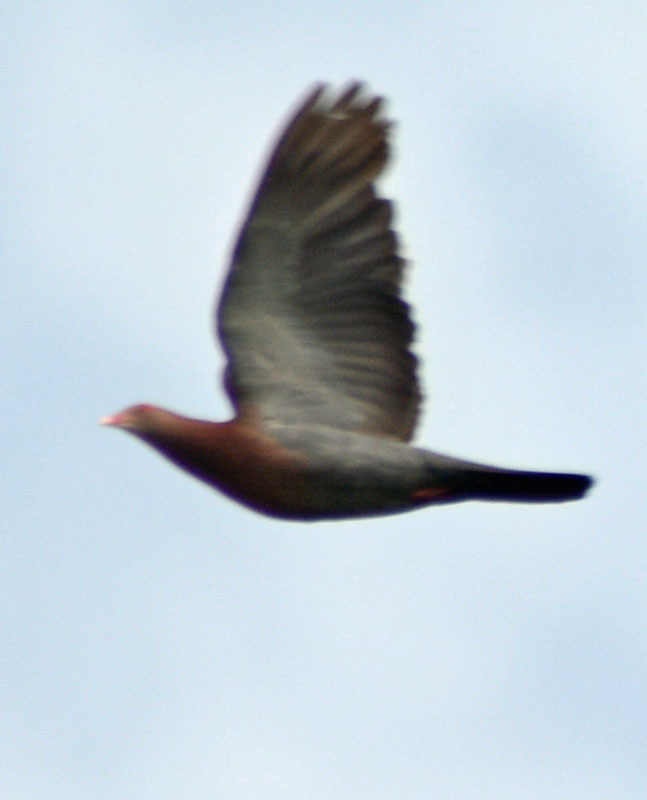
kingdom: Animalia
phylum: Chordata
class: Aves
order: Columbiformes
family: Columbidae
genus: Patagioenas
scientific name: Patagioenas flavirostris
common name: Red-billed pigeon
